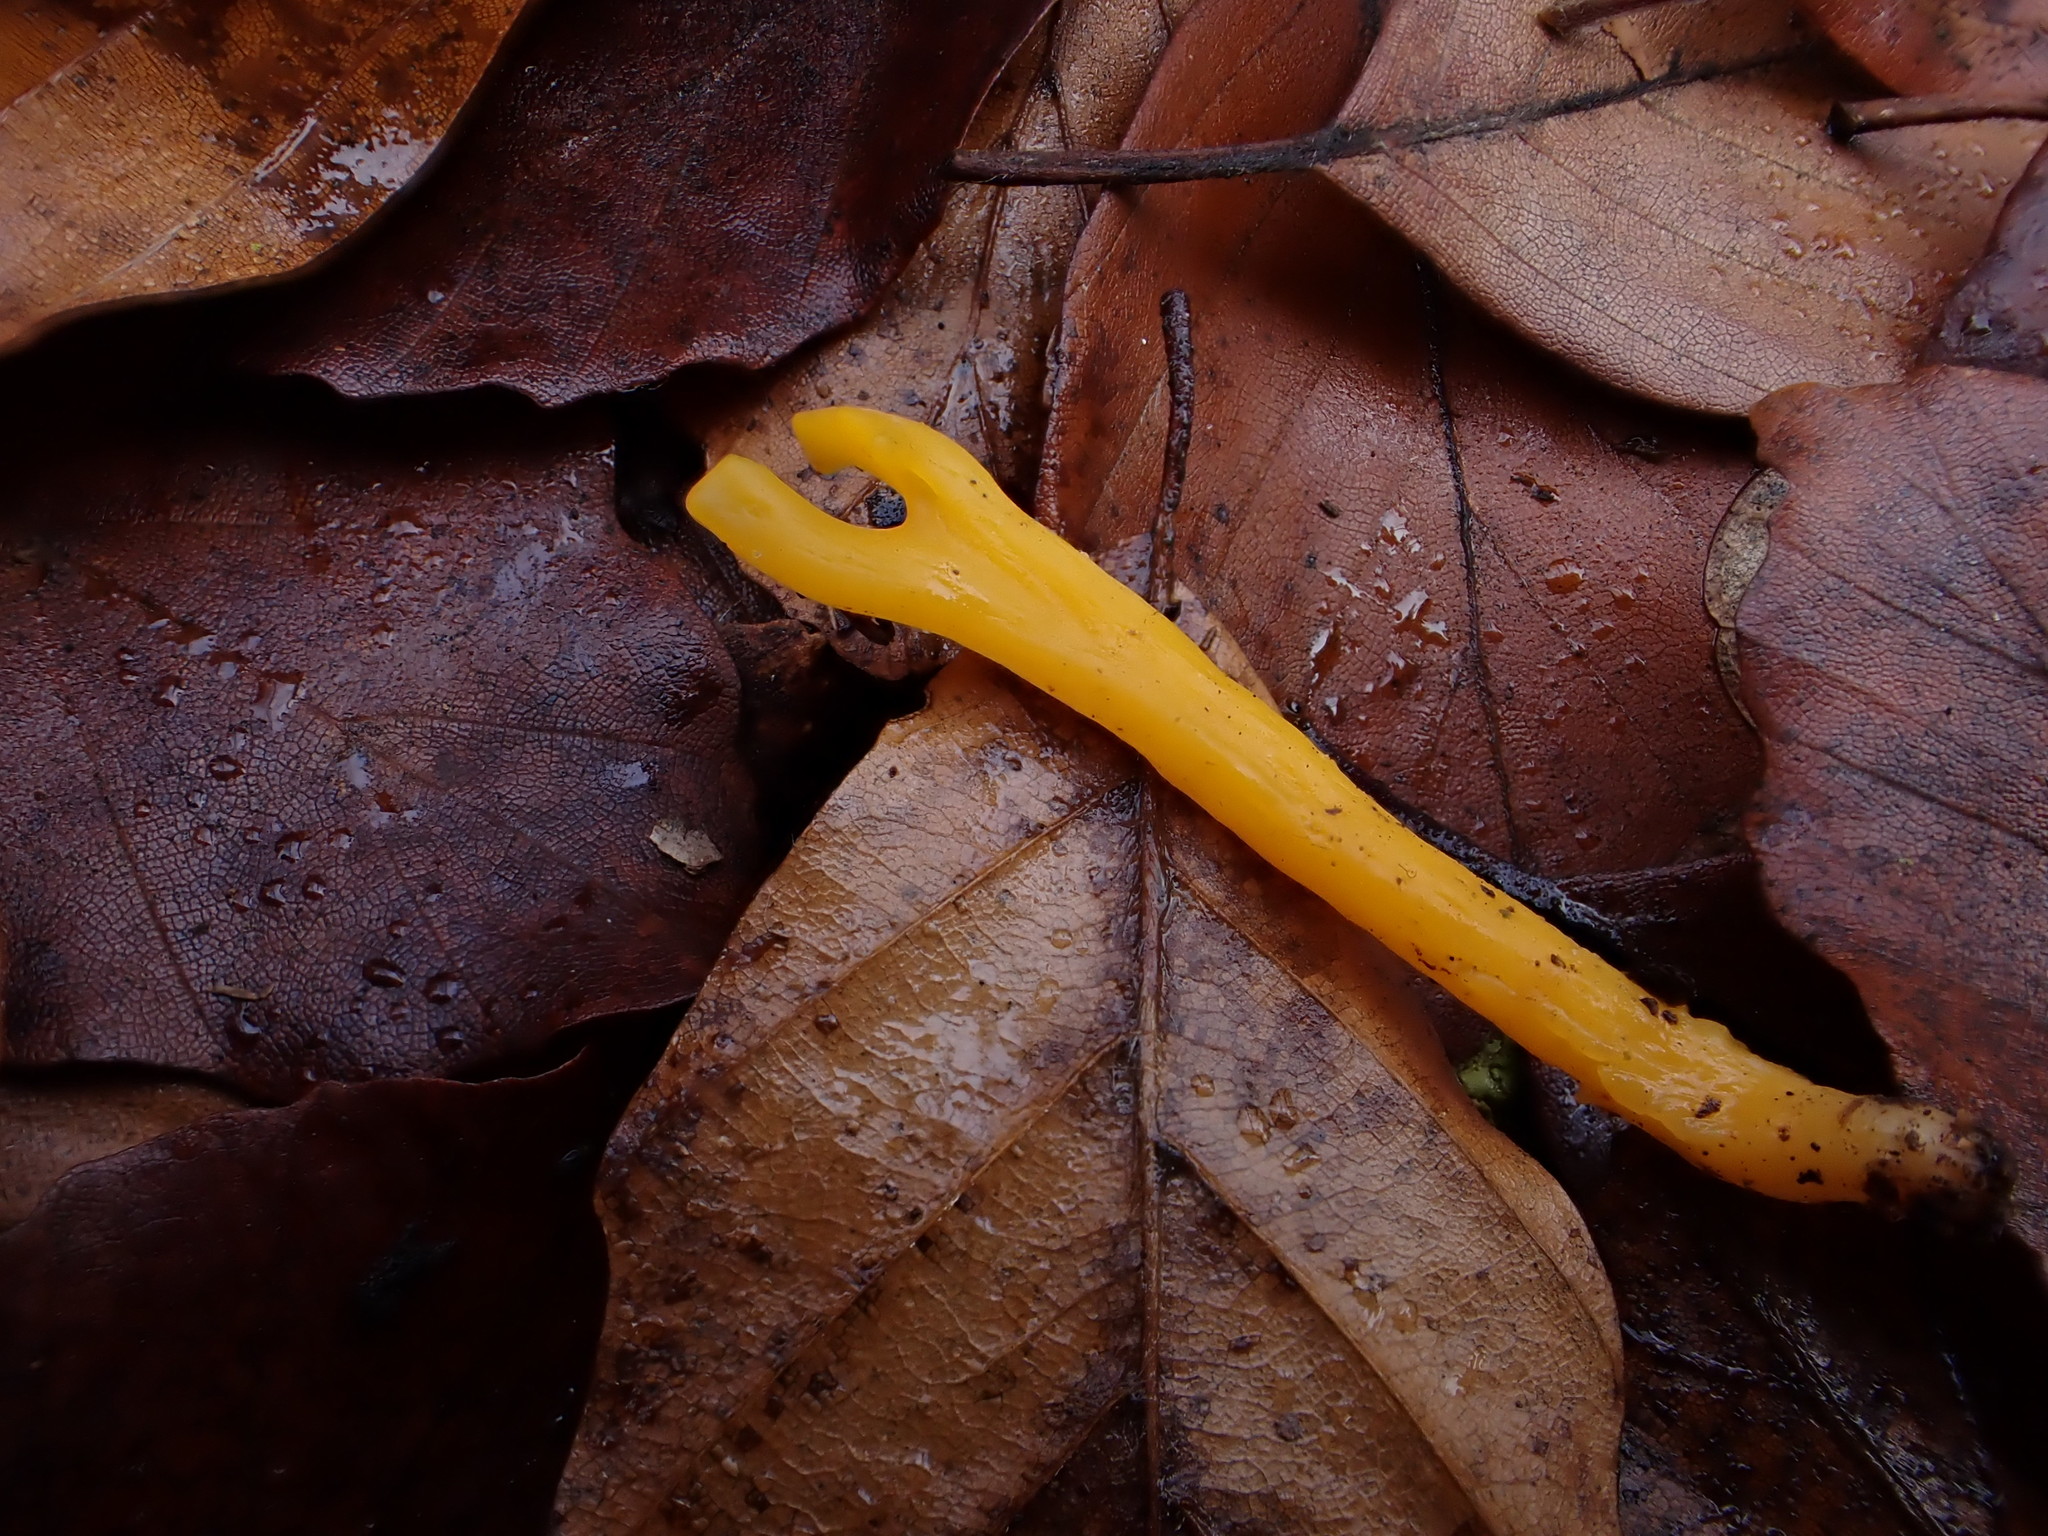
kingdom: Fungi
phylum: Basidiomycota
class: Dacrymycetes
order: Dacrymycetales
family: Dacrymycetaceae
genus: Calocera
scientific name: Calocera viscosa
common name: Yellow stagshorn
